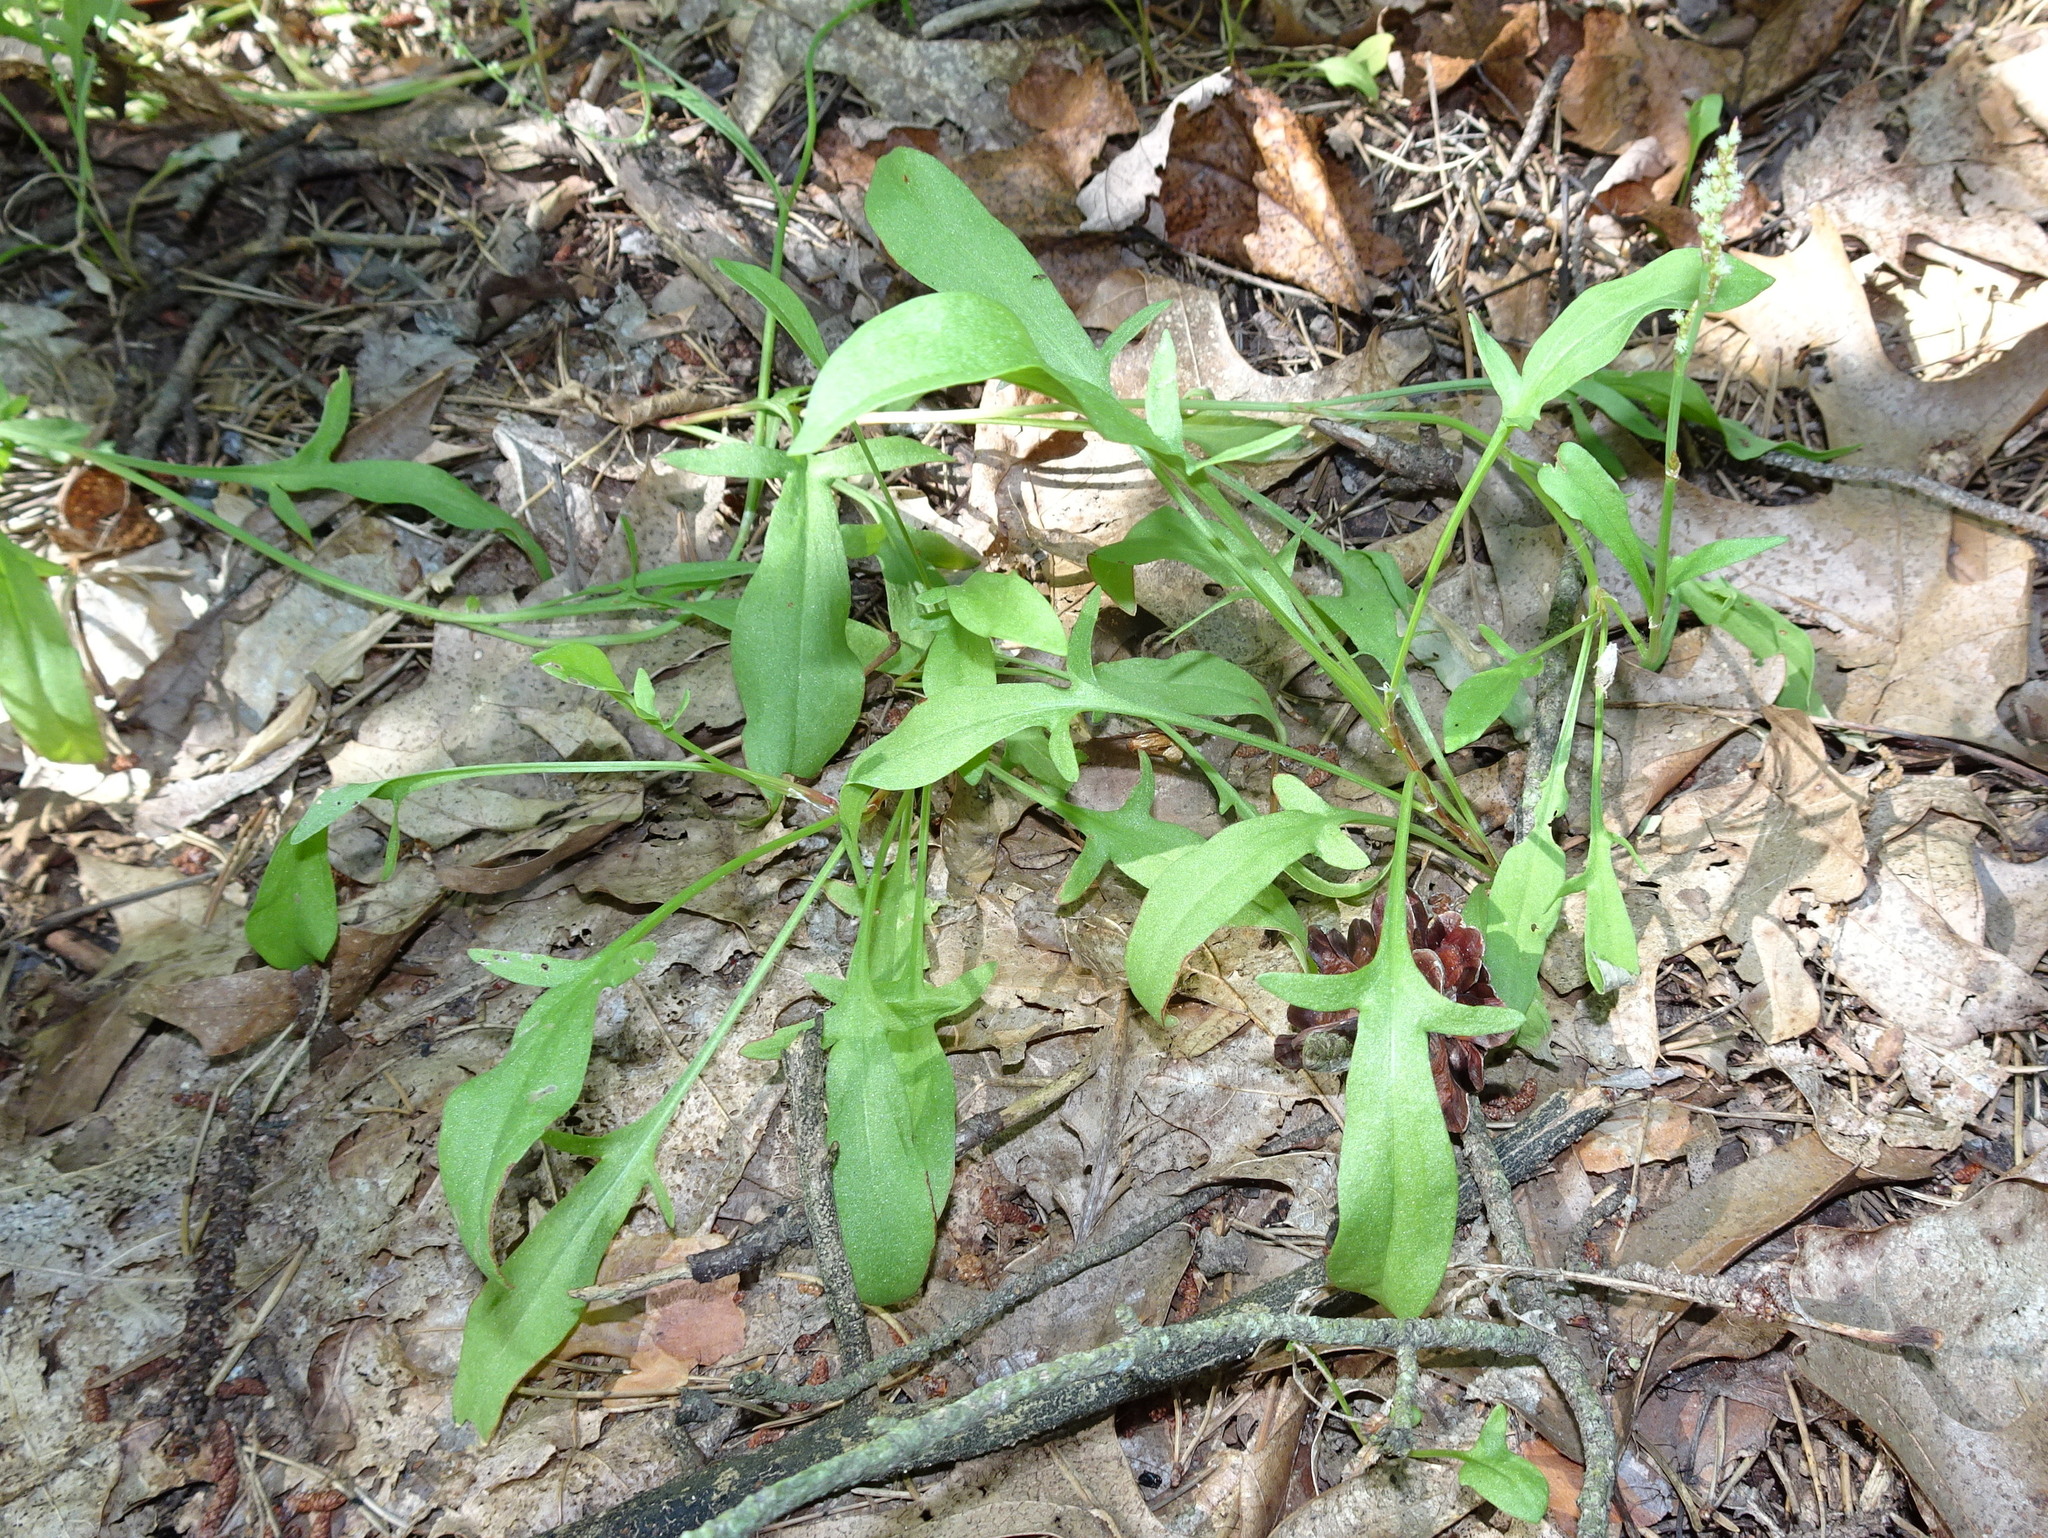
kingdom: Plantae
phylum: Tracheophyta
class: Magnoliopsida
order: Caryophyllales
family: Polygonaceae
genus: Rumex
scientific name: Rumex acetosella
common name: Common sheep sorrel
